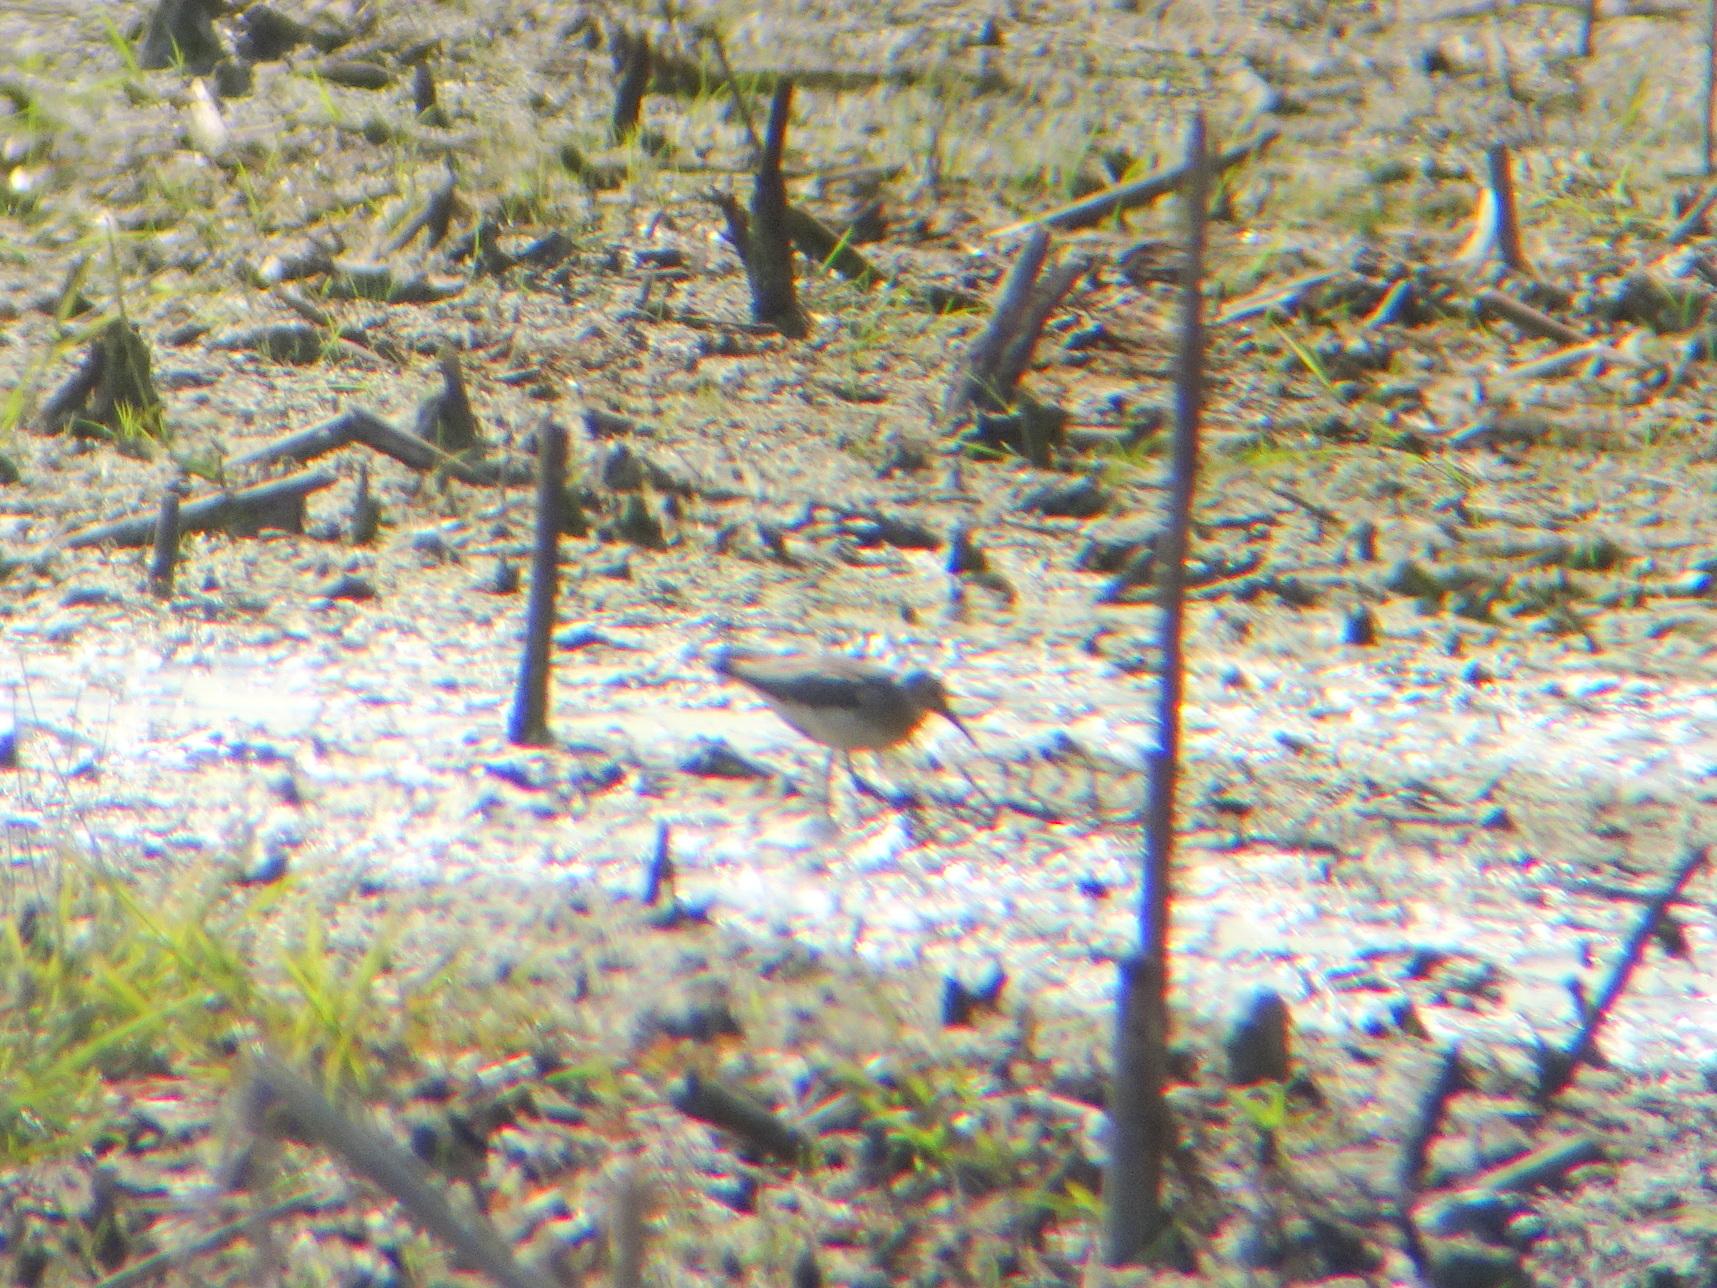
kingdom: Animalia
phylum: Chordata
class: Aves
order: Charadriiformes
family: Scolopacidae
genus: Tringa
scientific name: Tringa solitaria
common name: Solitary sandpiper
